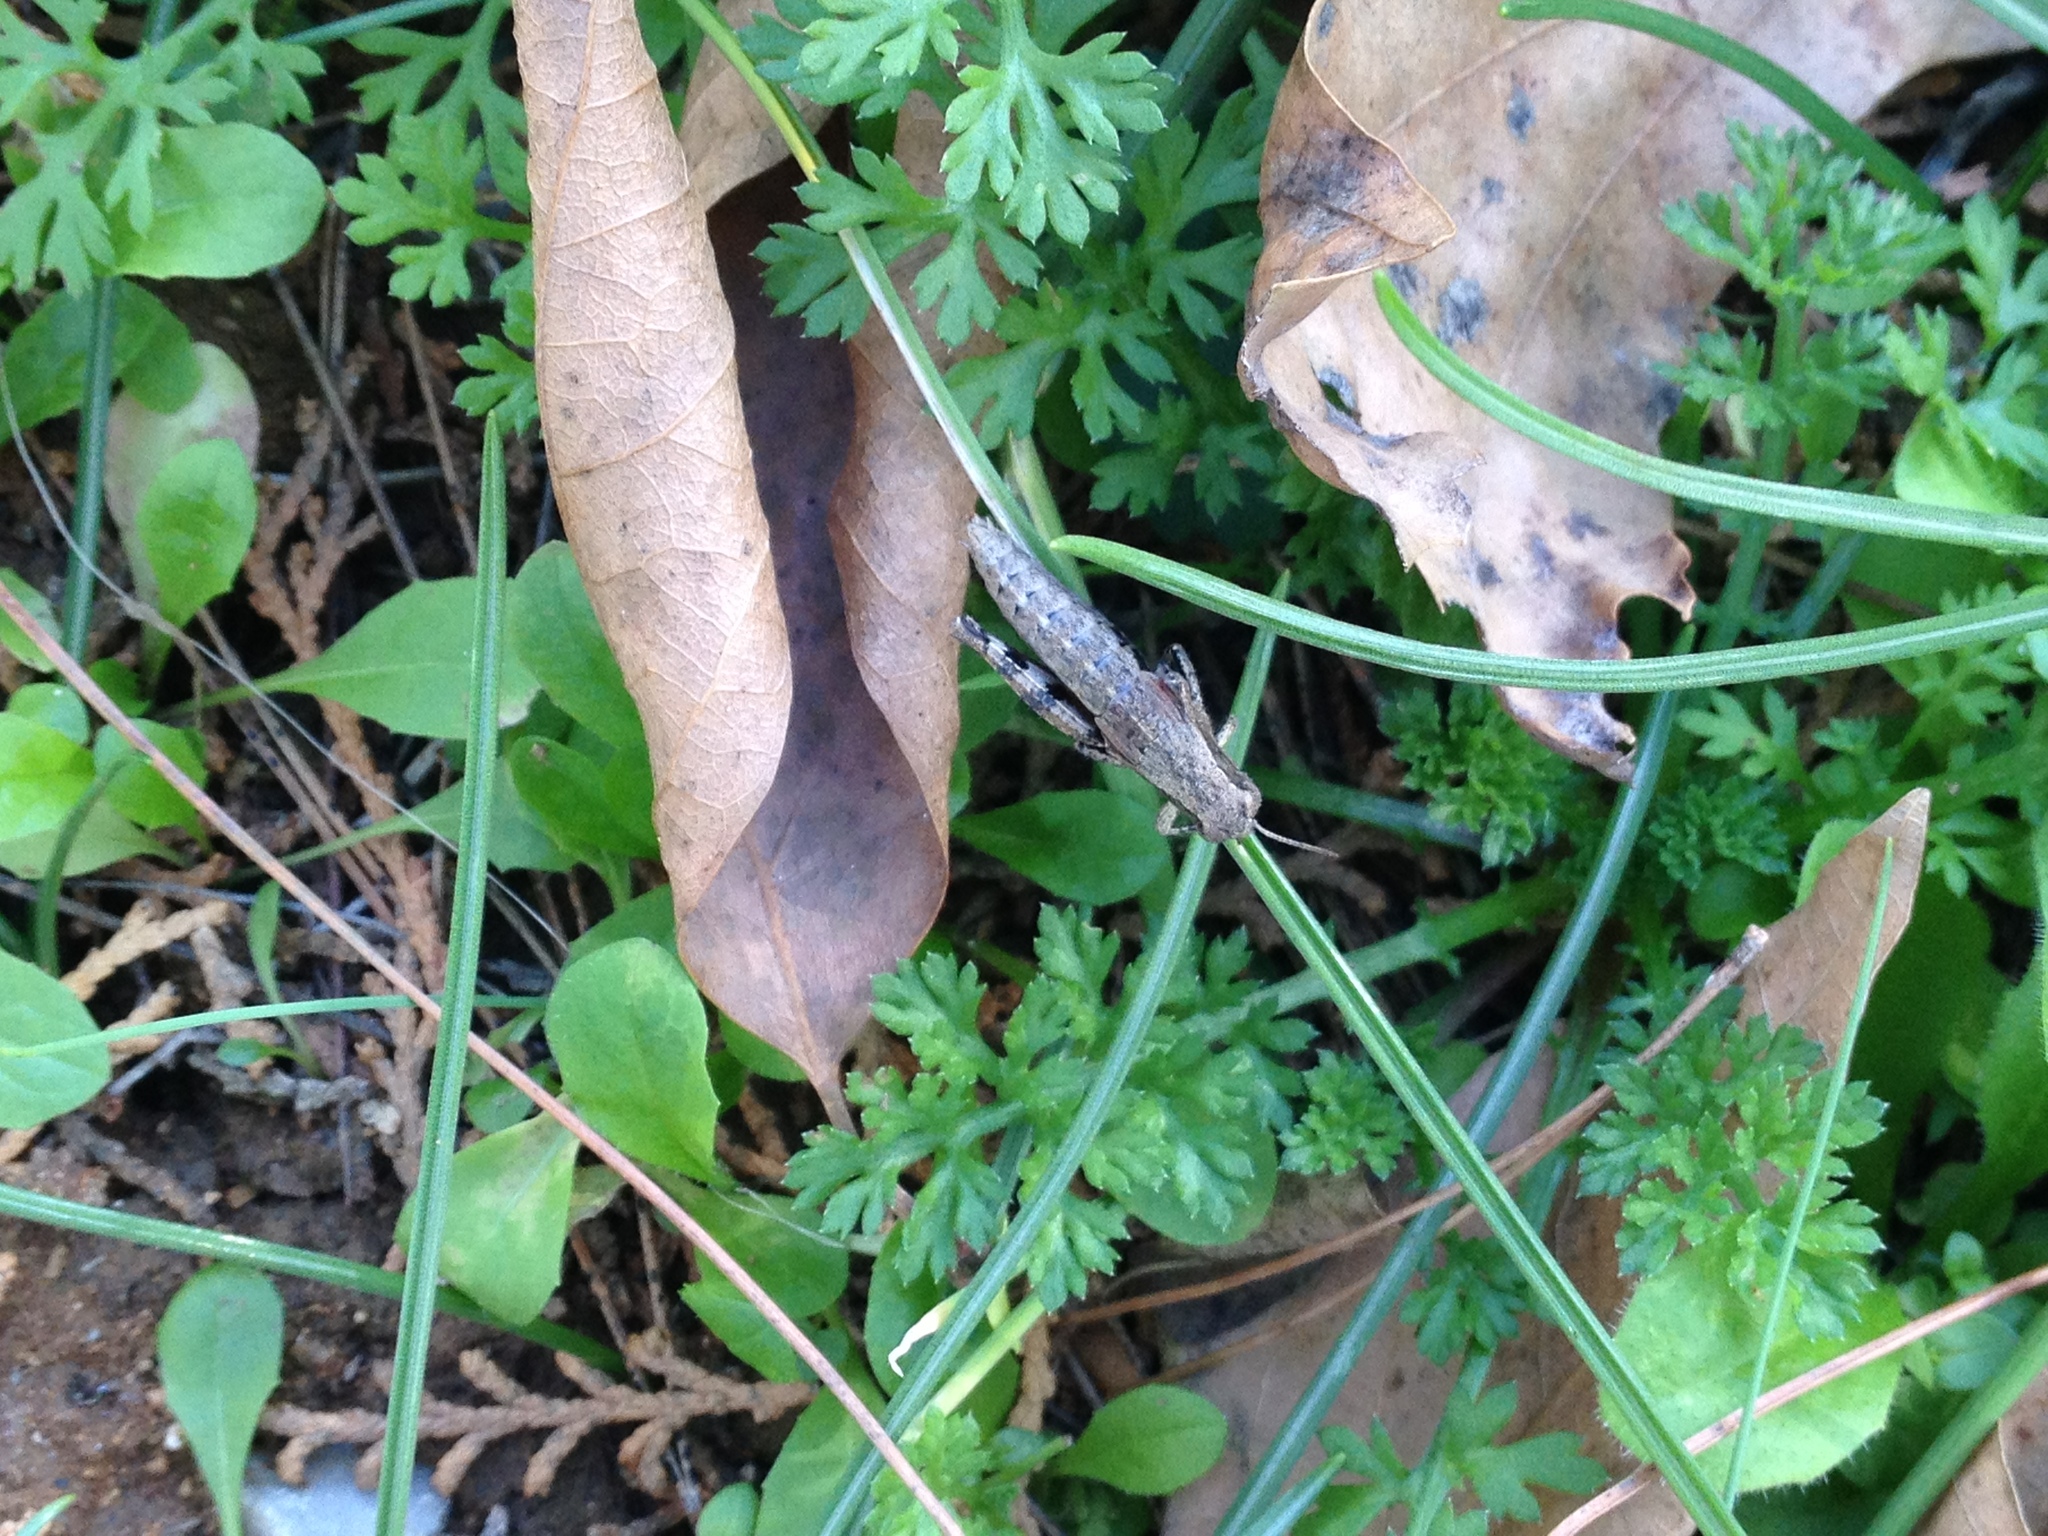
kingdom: Animalia
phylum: Arthropoda
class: Insecta
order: Orthoptera
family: Acrididae
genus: Pezotettix
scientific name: Pezotettix giornae
